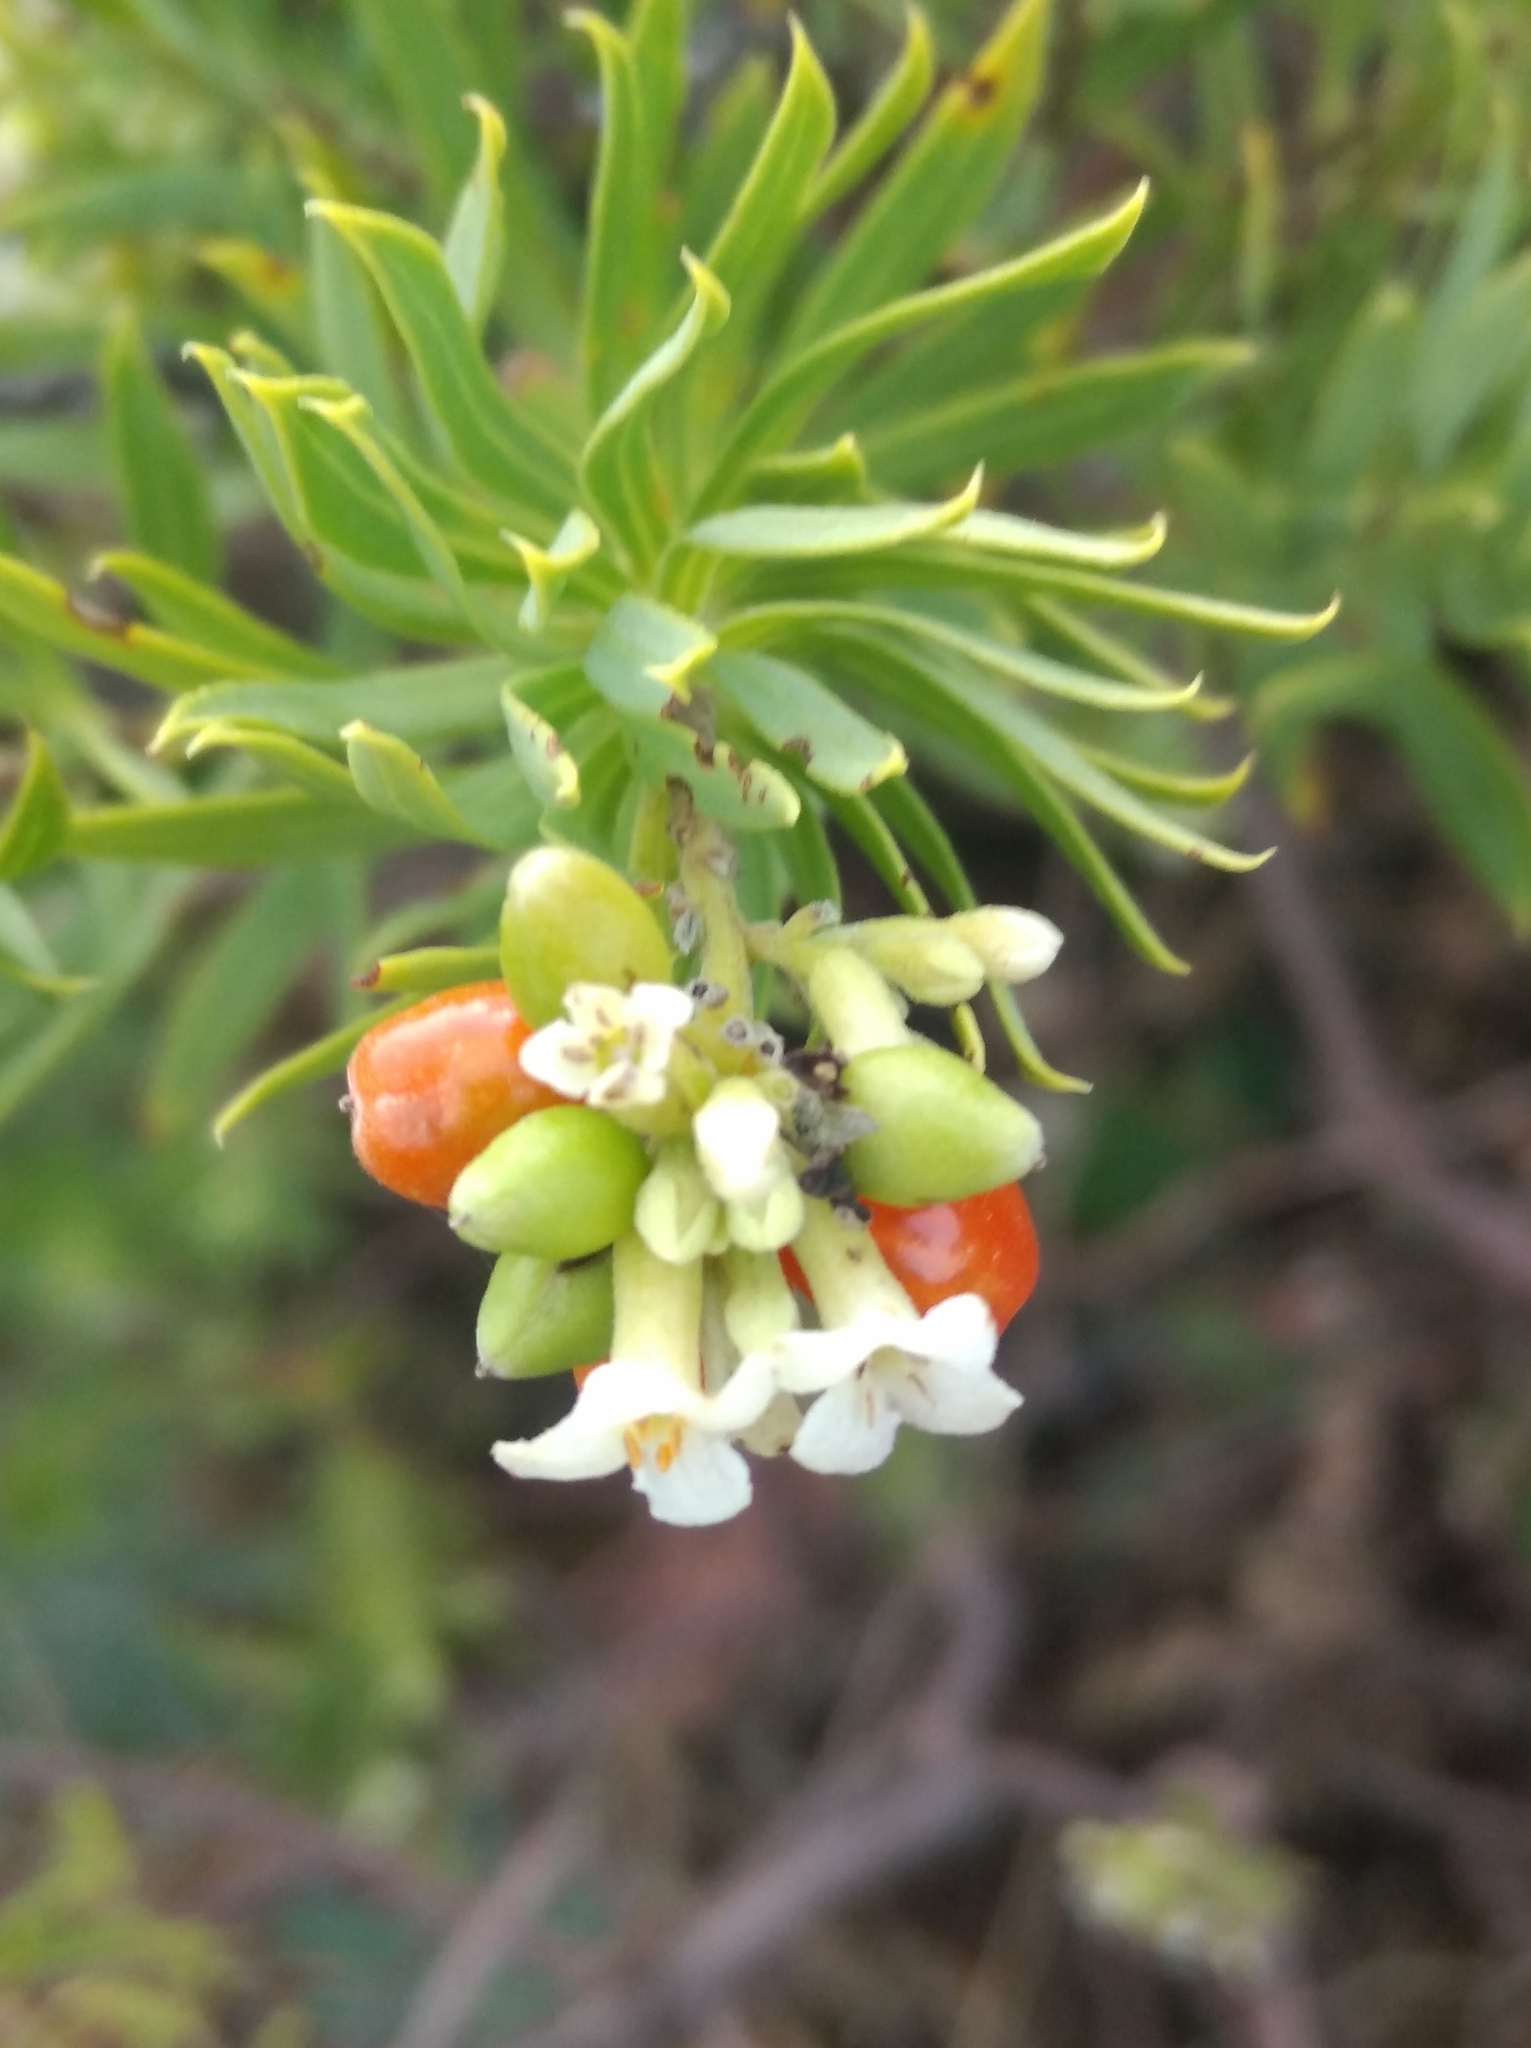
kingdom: Plantae
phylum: Tracheophyta
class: Magnoliopsida
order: Malvales
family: Thymelaeaceae
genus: Daphne
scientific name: Daphne gnidium
